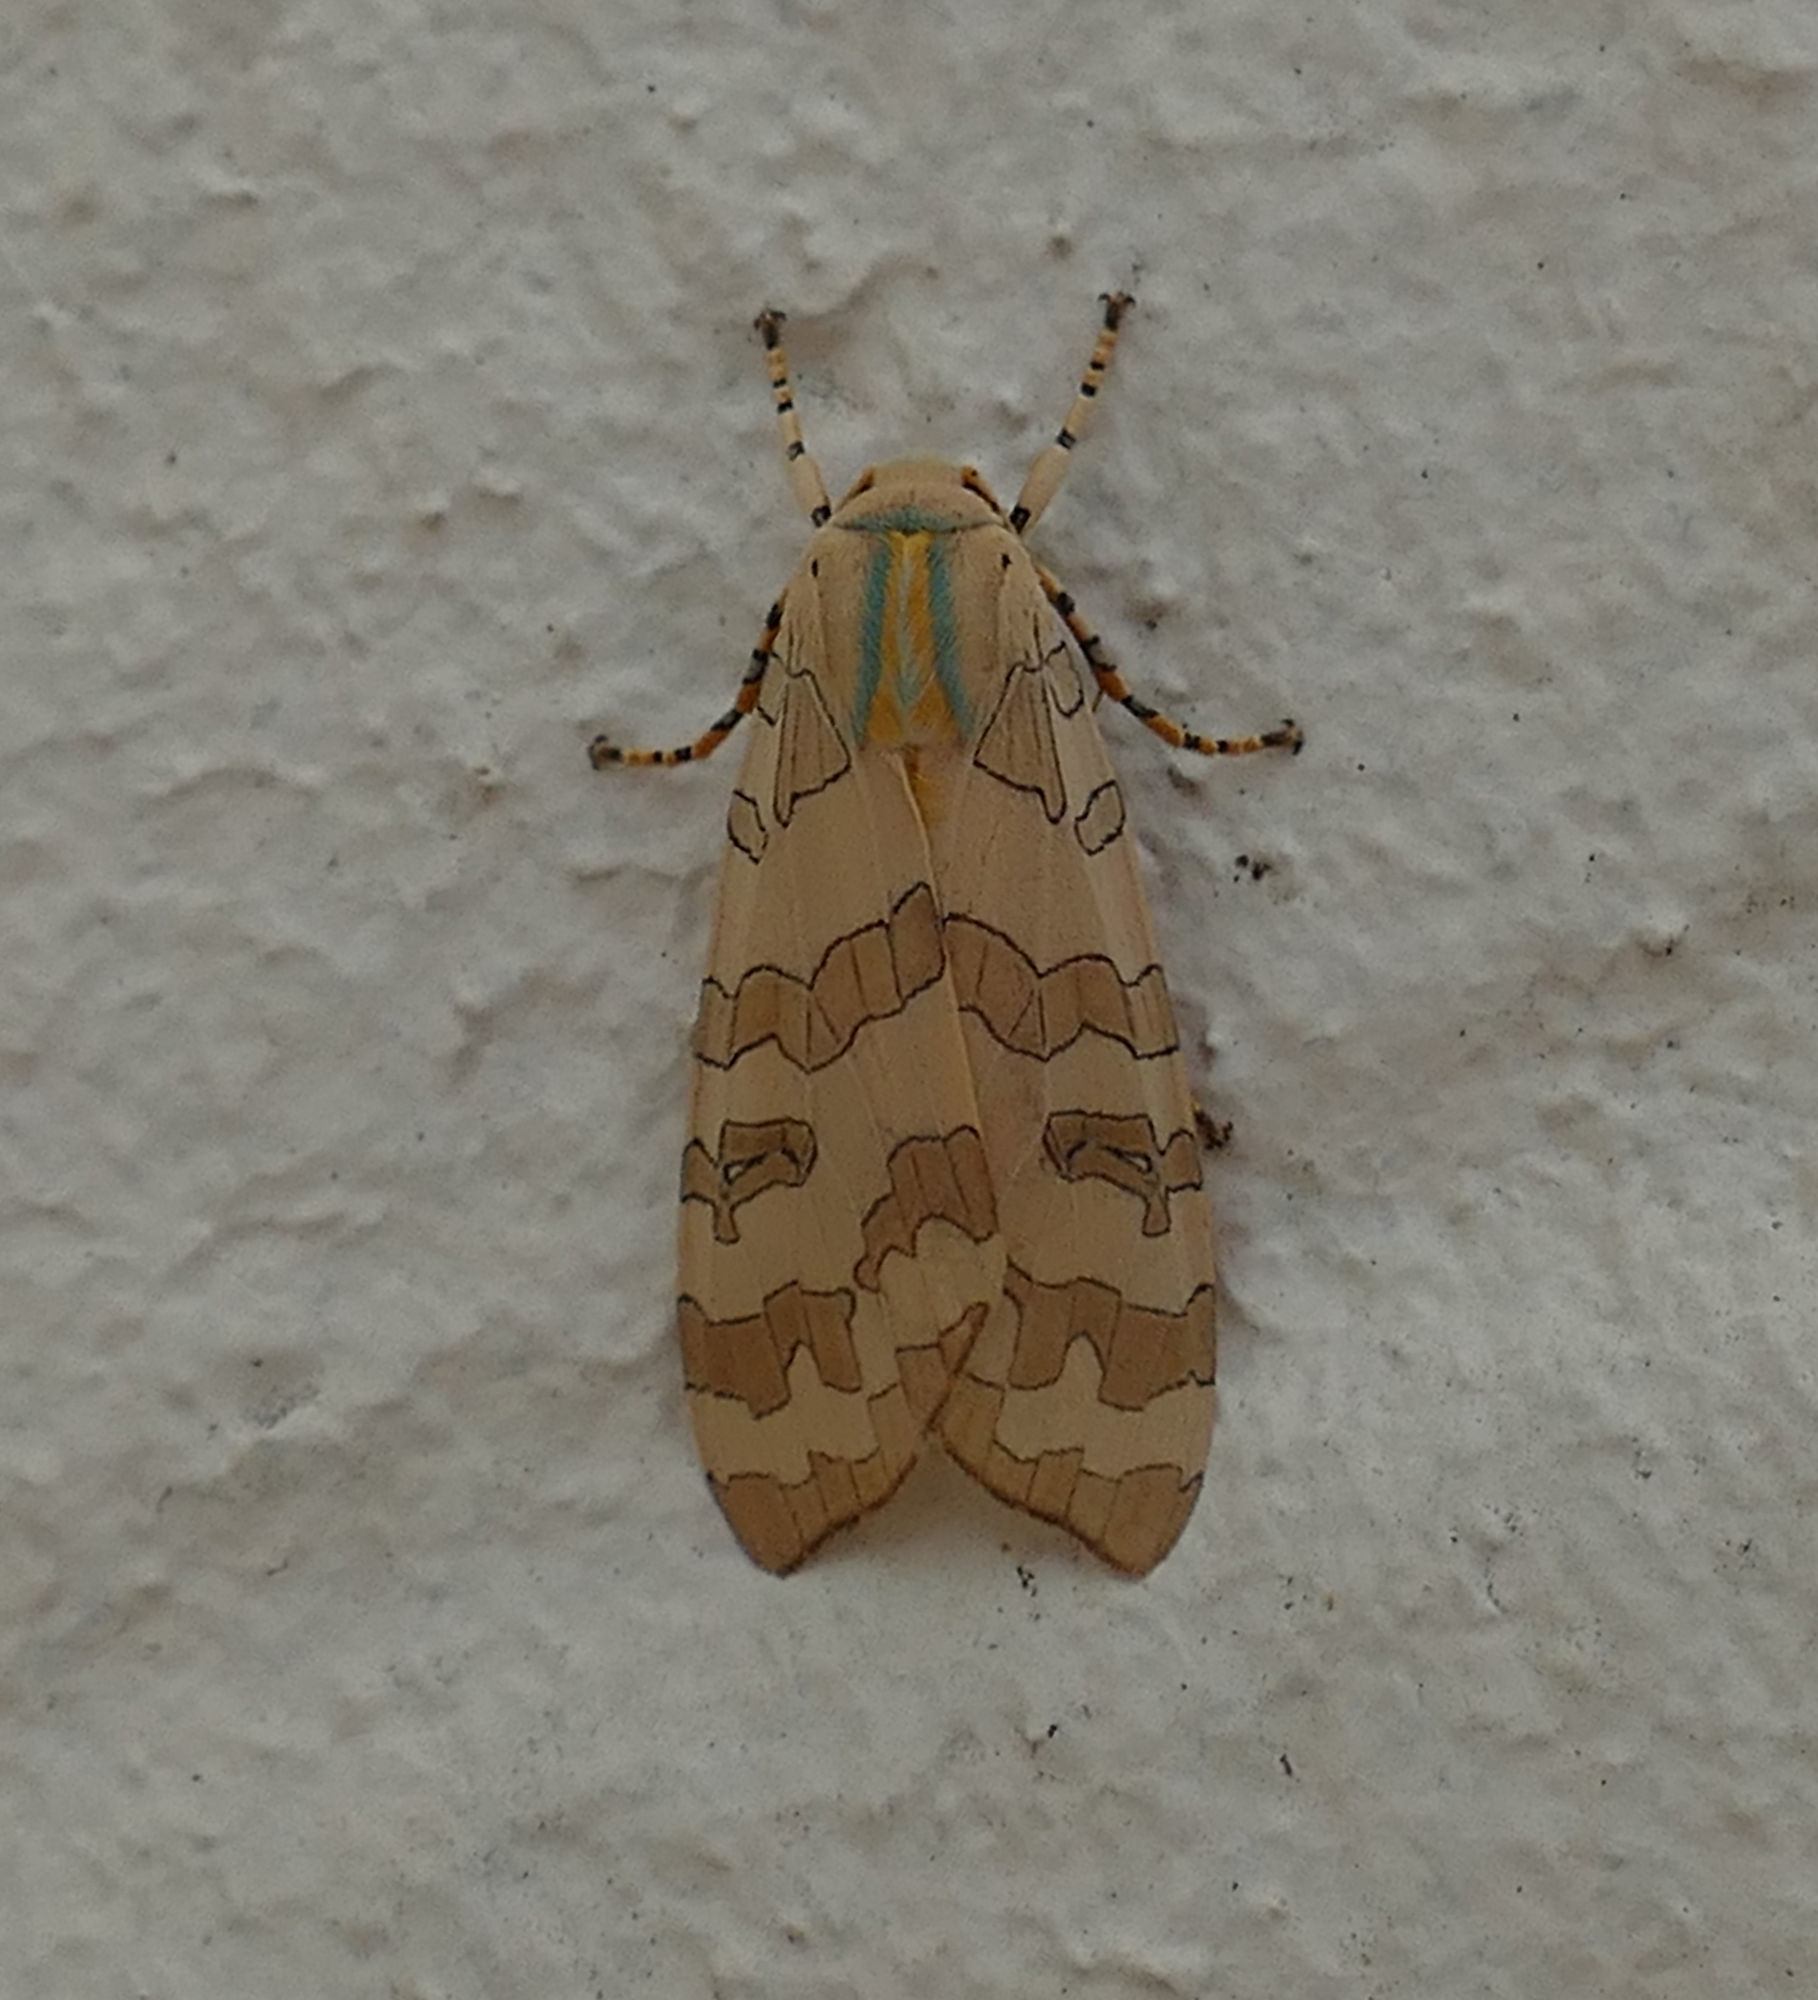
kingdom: Animalia
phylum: Arthropoda
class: Insecta
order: Lepidoptera
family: Erebidae
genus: Halysidota
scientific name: Halysidota
